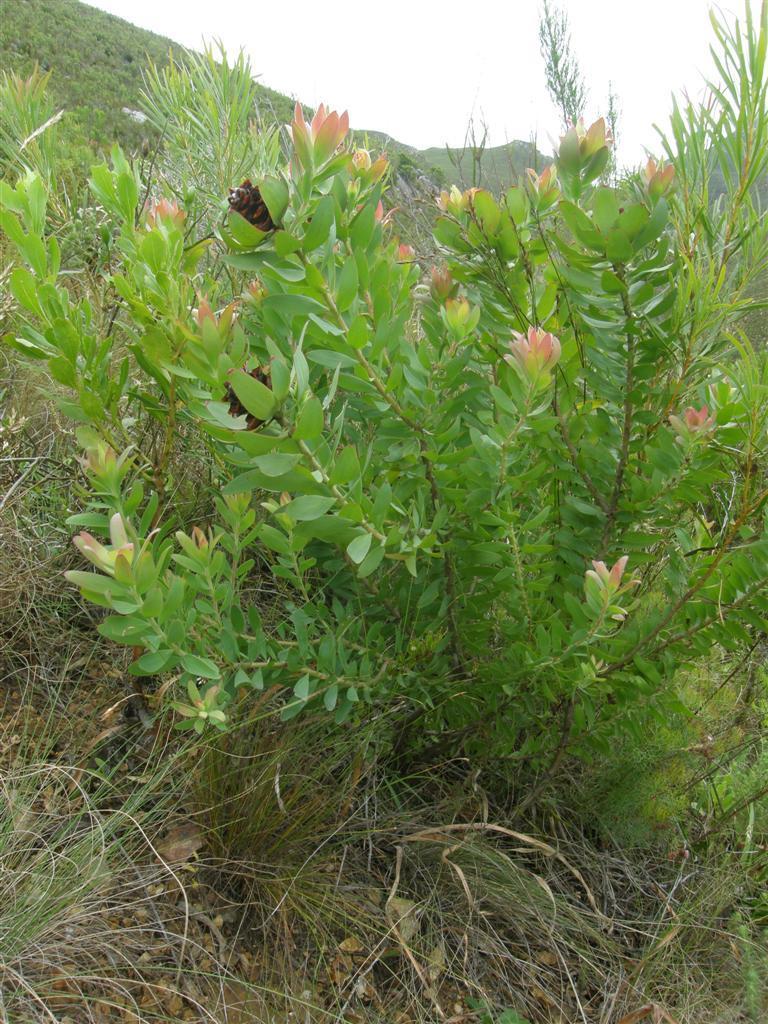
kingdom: Plantae
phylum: Tracheophyta
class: Magnoliopsida
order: Proteales
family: Proteaceae
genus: Leucadendron
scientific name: Leucadendron burchellii
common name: Riviersonderend conebush
